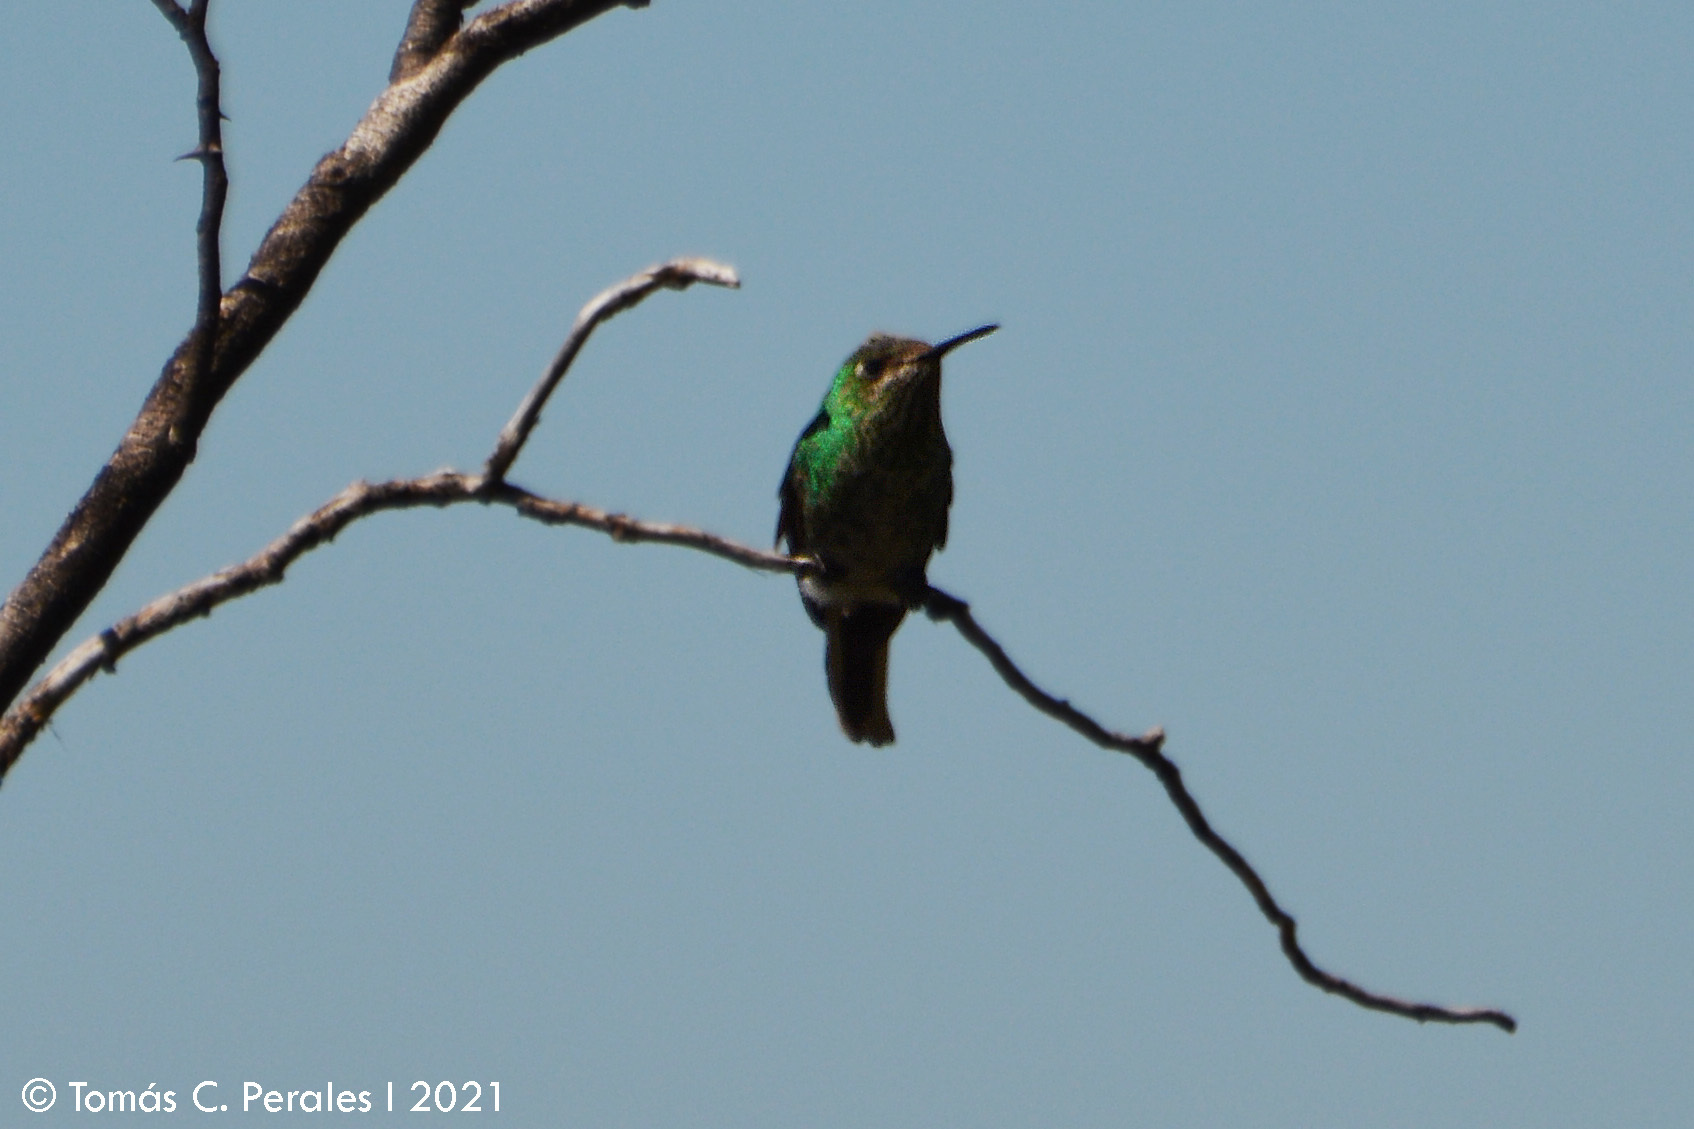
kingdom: Animalia
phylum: Chordata
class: Aves
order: Apodiformes
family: Trochilidae
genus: Sappho
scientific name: Sappho sparganurus
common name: Red-tailed comet
